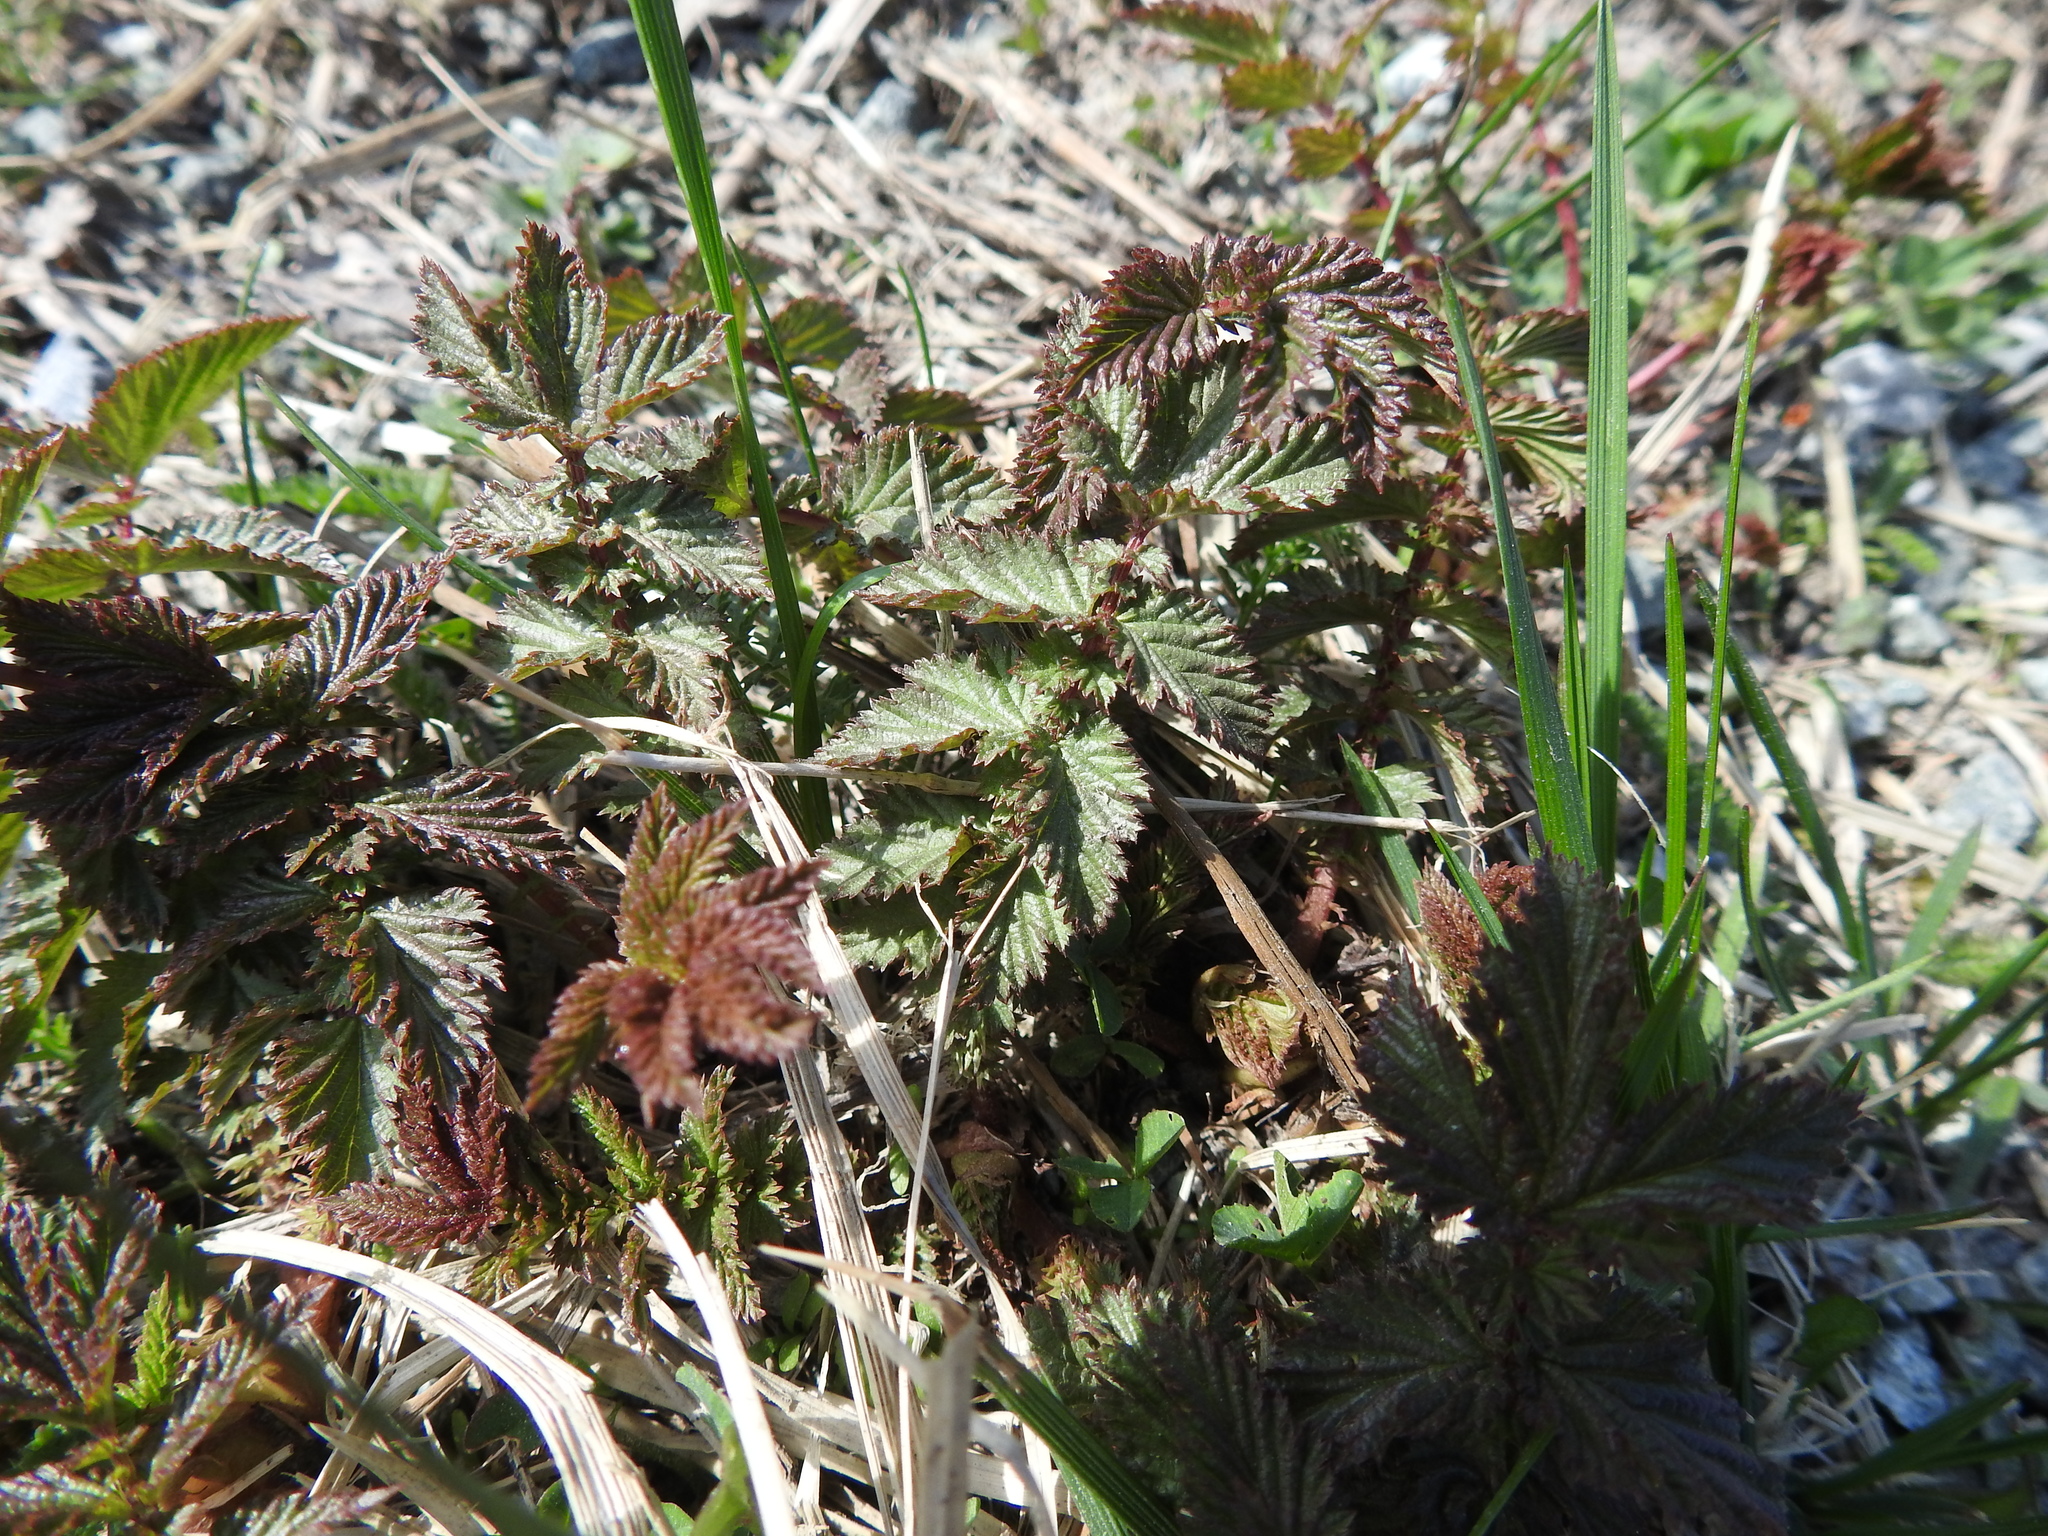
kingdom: Plantae
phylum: Tracheophyta
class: Magnoliopsida
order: Rosales
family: Rosaceae
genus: Filipendula
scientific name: Filipendula ulmaria
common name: Meadowsweet
